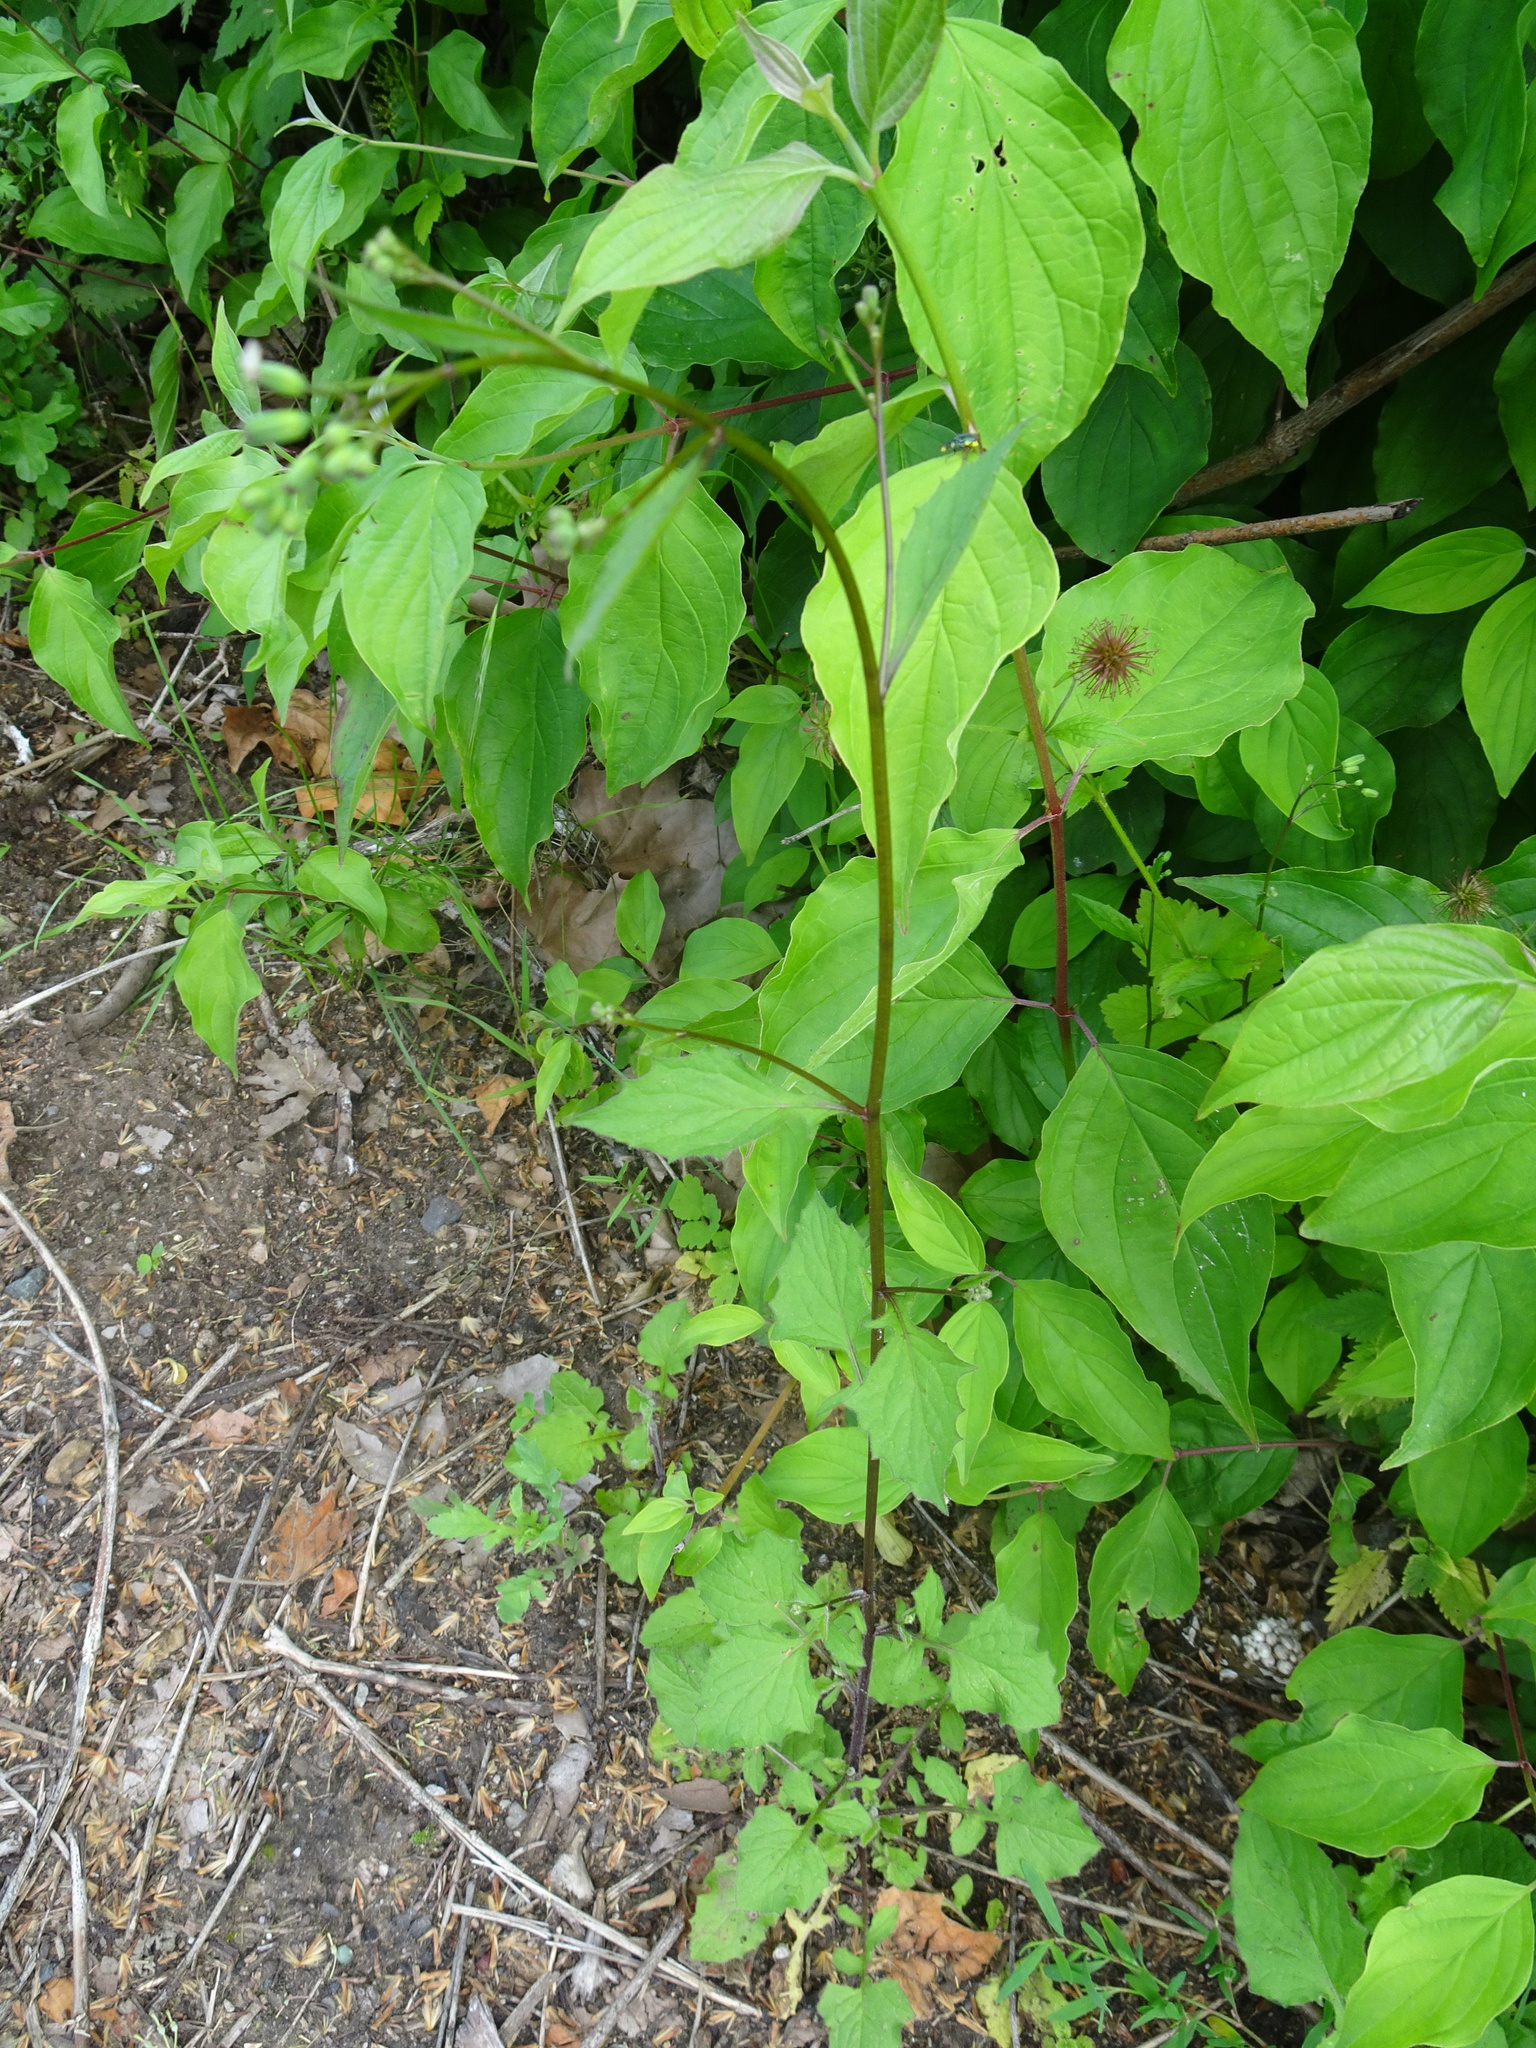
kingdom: Plantae
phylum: Tracheophyta
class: Magnoliopsida
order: Asterales
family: Asteraceae
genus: Lapsana
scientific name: Lapsana communis
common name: Nipplewort
